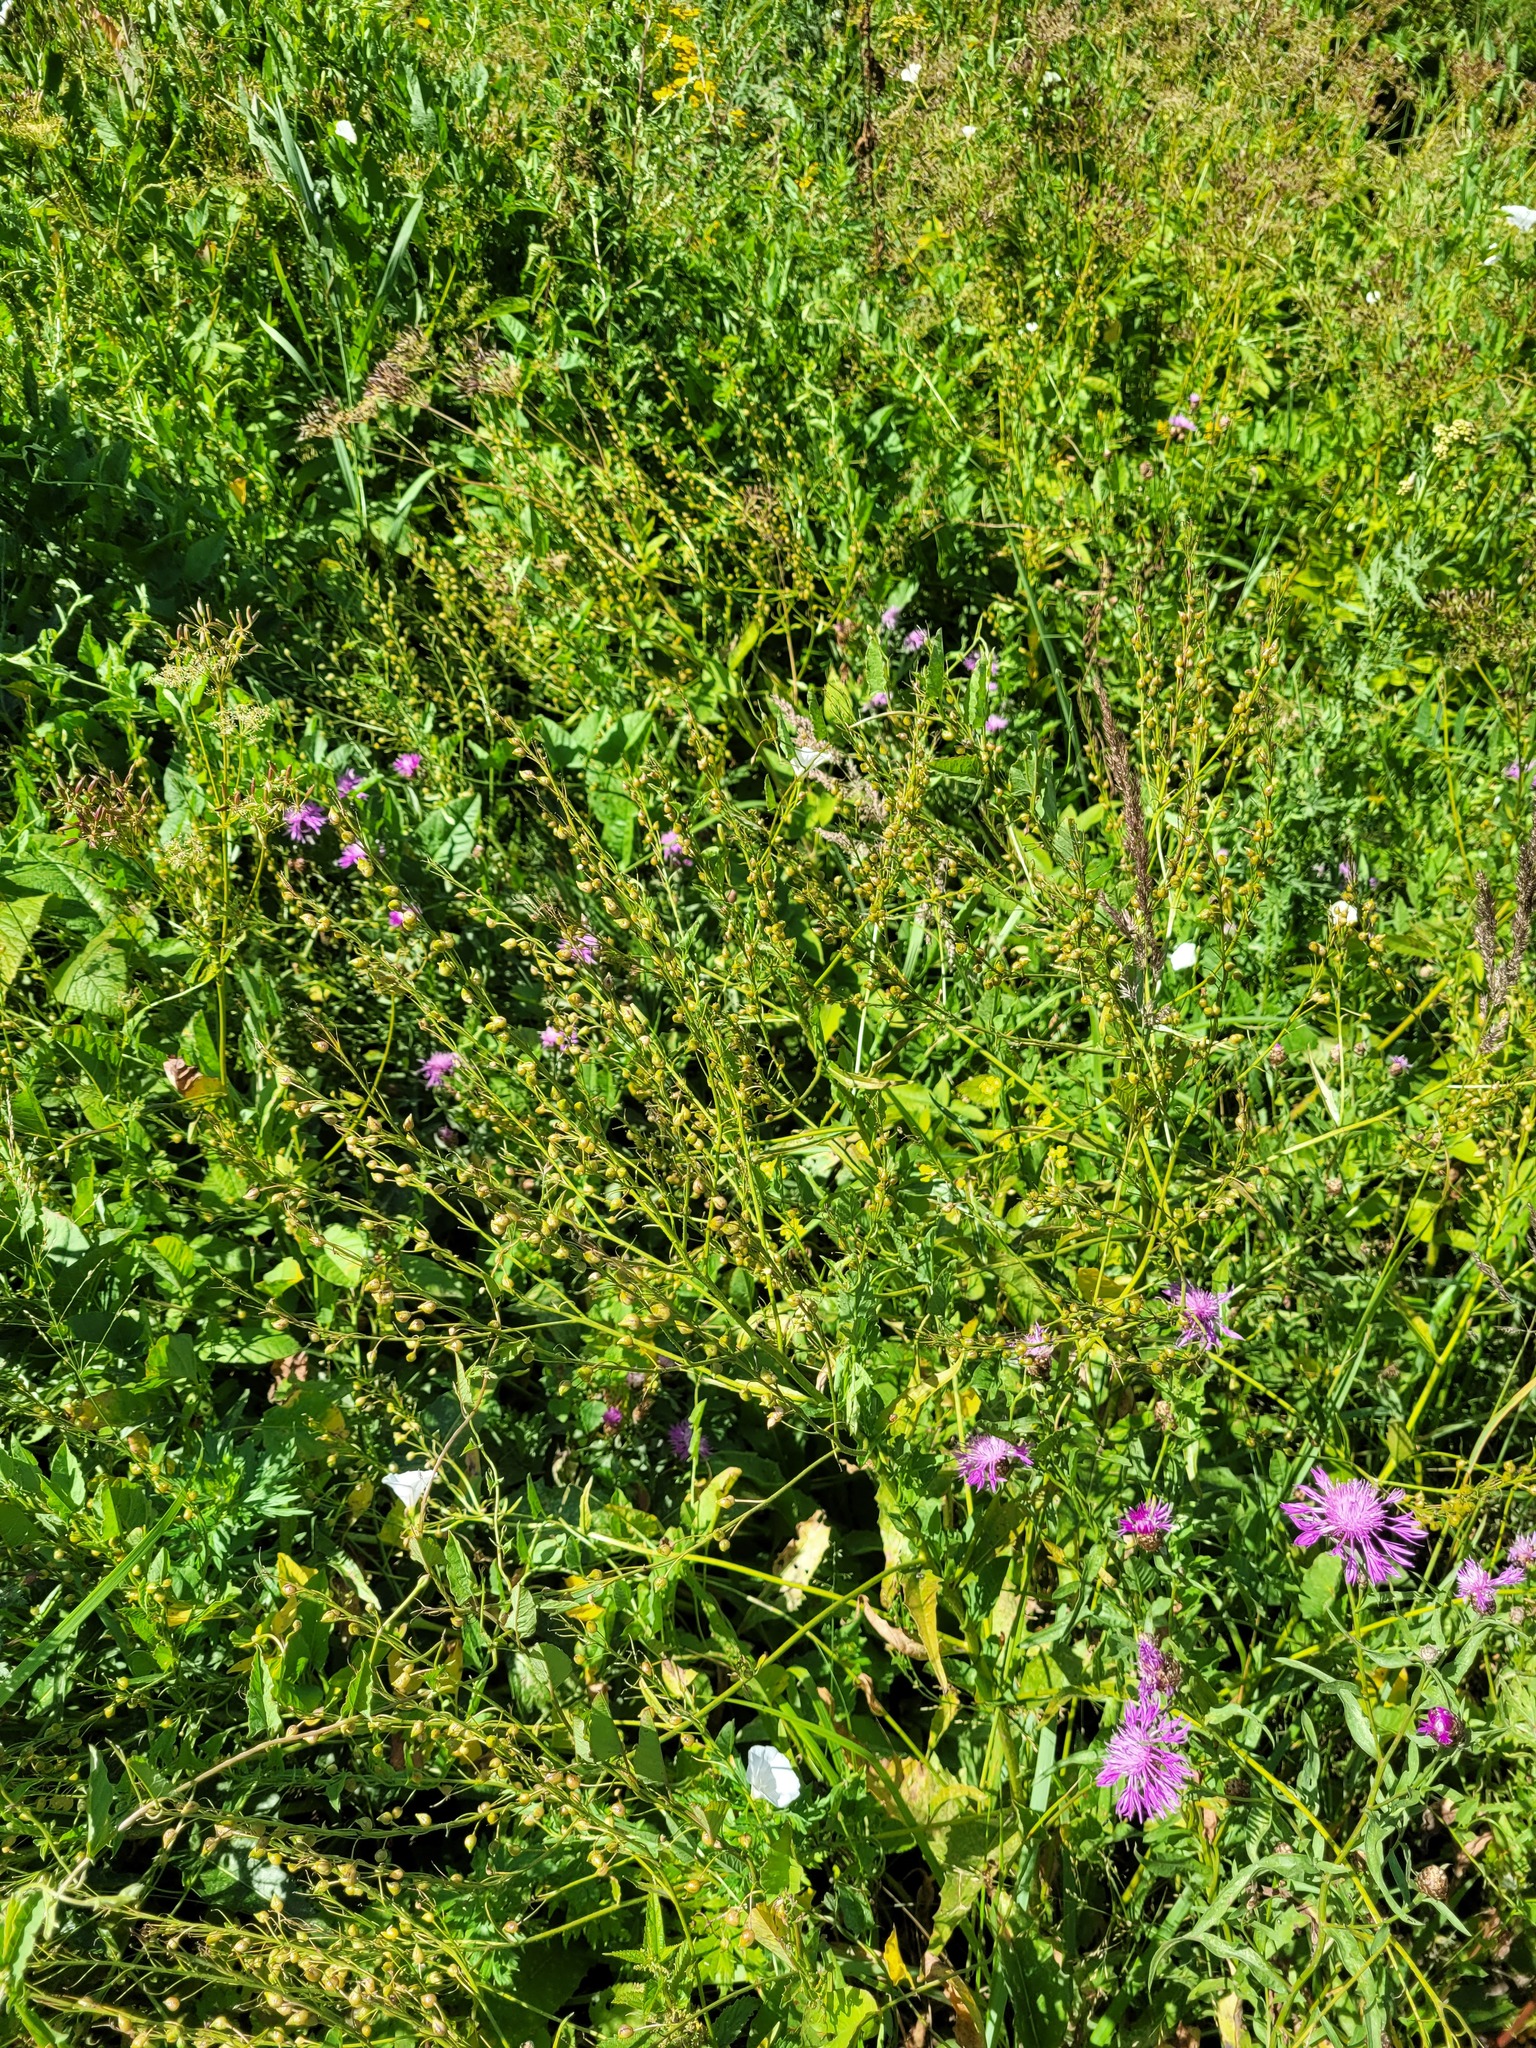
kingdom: Plantae
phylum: Tracheophyta
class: Magnoliopsida
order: Brassicales
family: Brassicaceae
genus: Bunias
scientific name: Bunias orientalis
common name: Warty-cabbage
